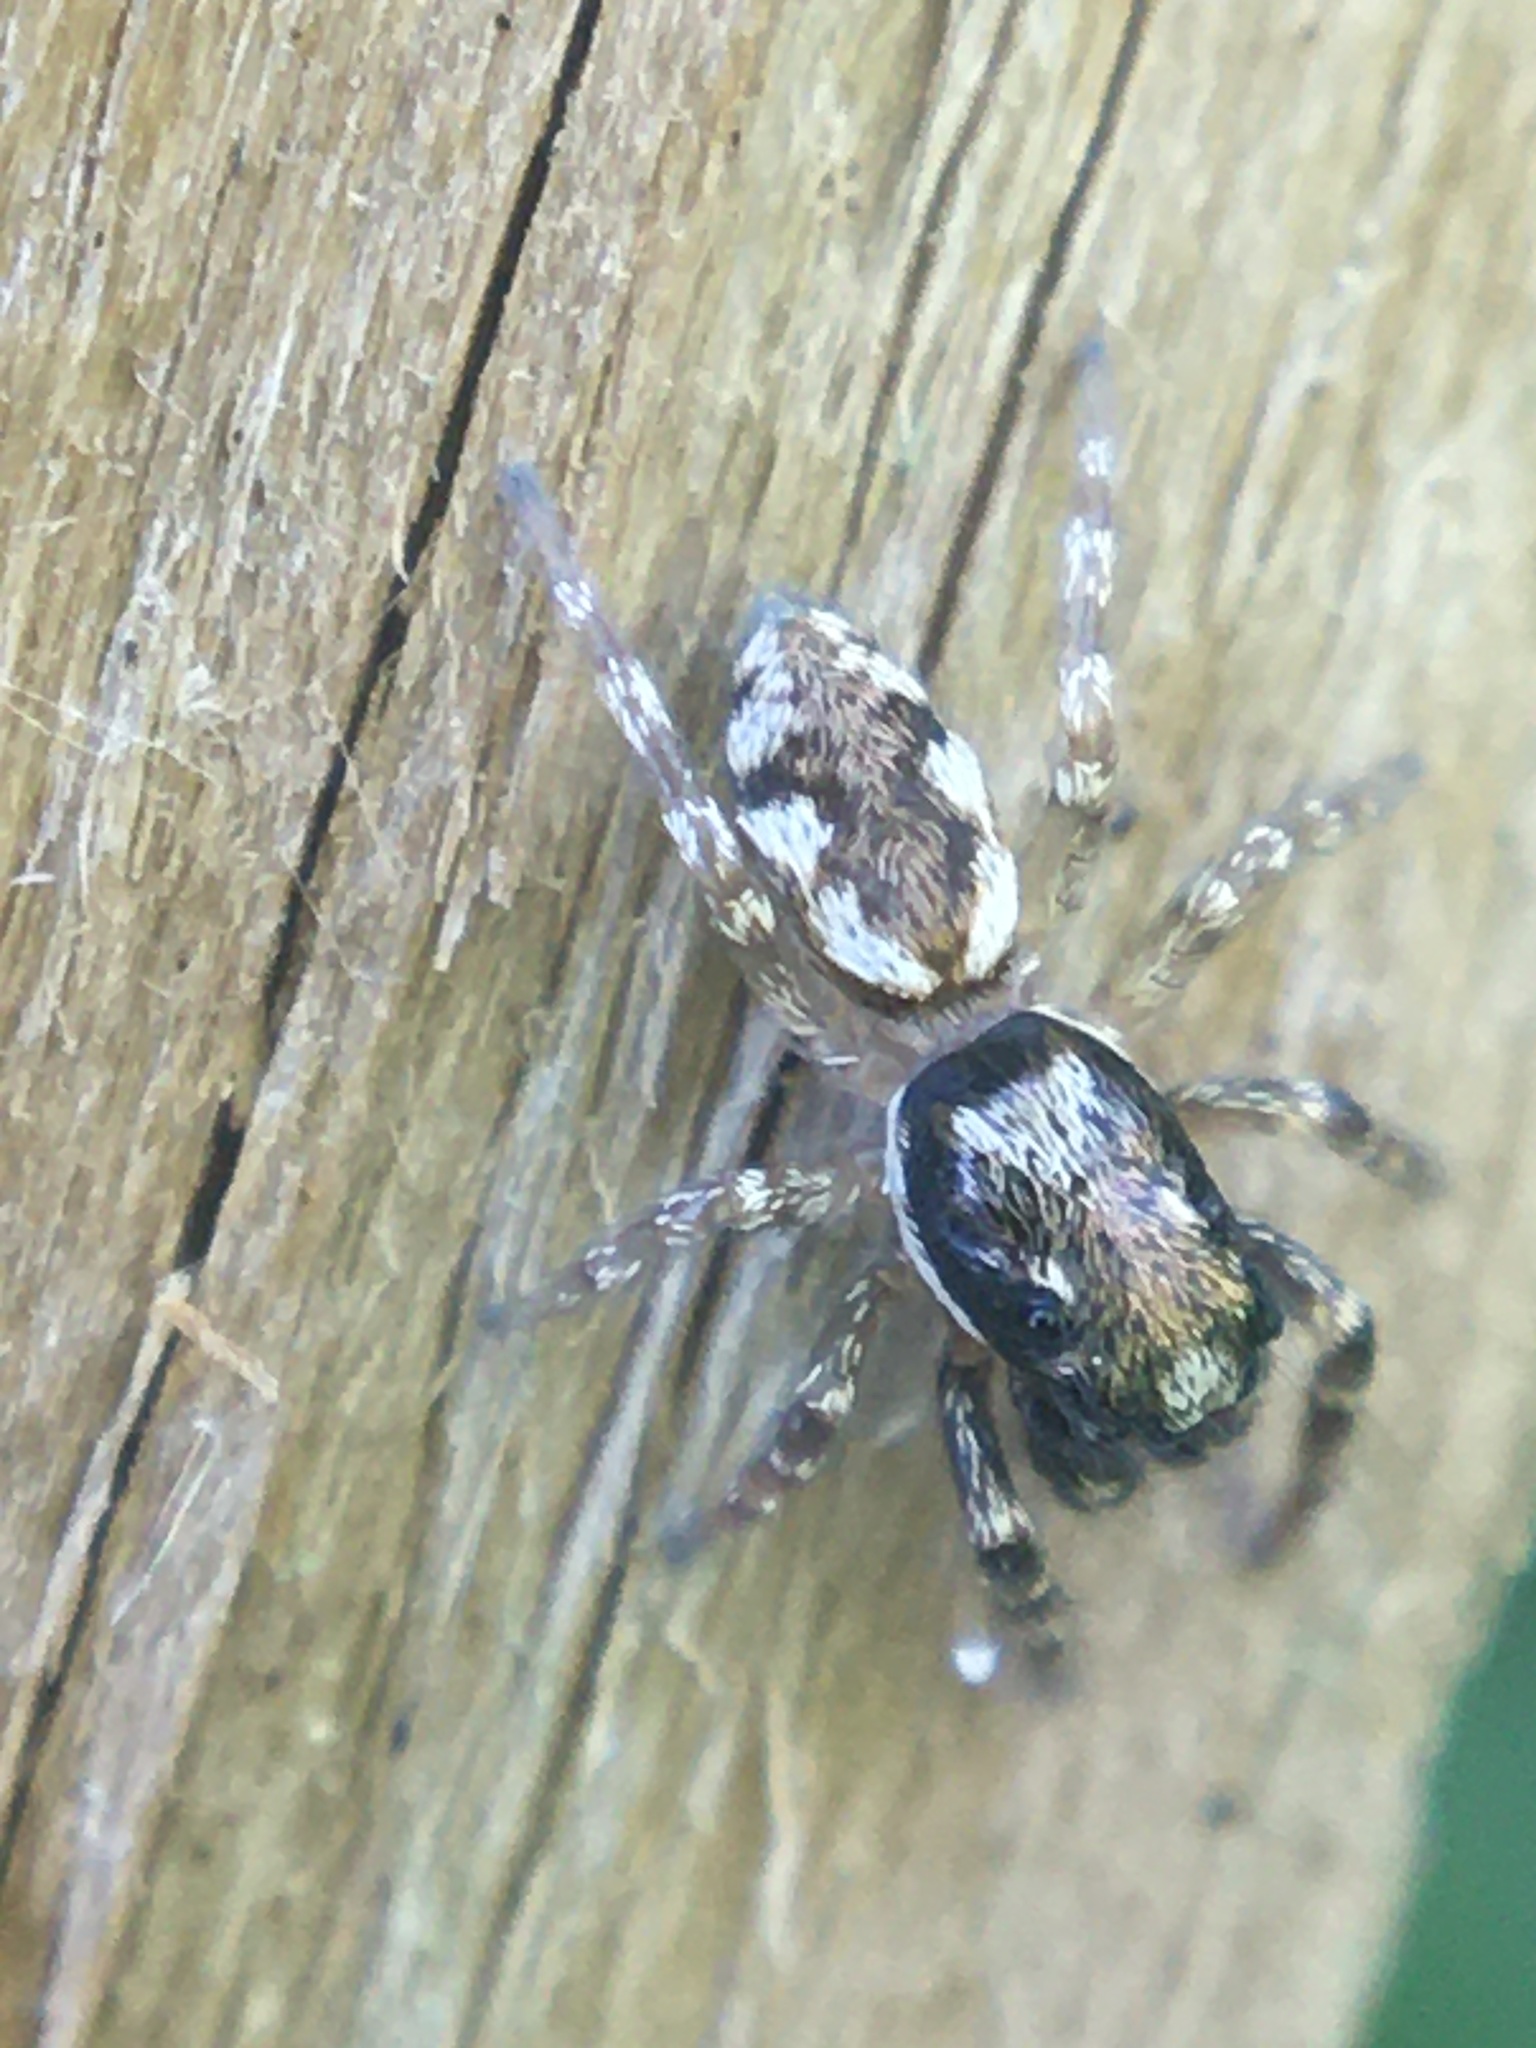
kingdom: Animalia
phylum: Arthropoda
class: Arachnida
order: Araneae
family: Salticidae
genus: Salticus
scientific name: Salticus
